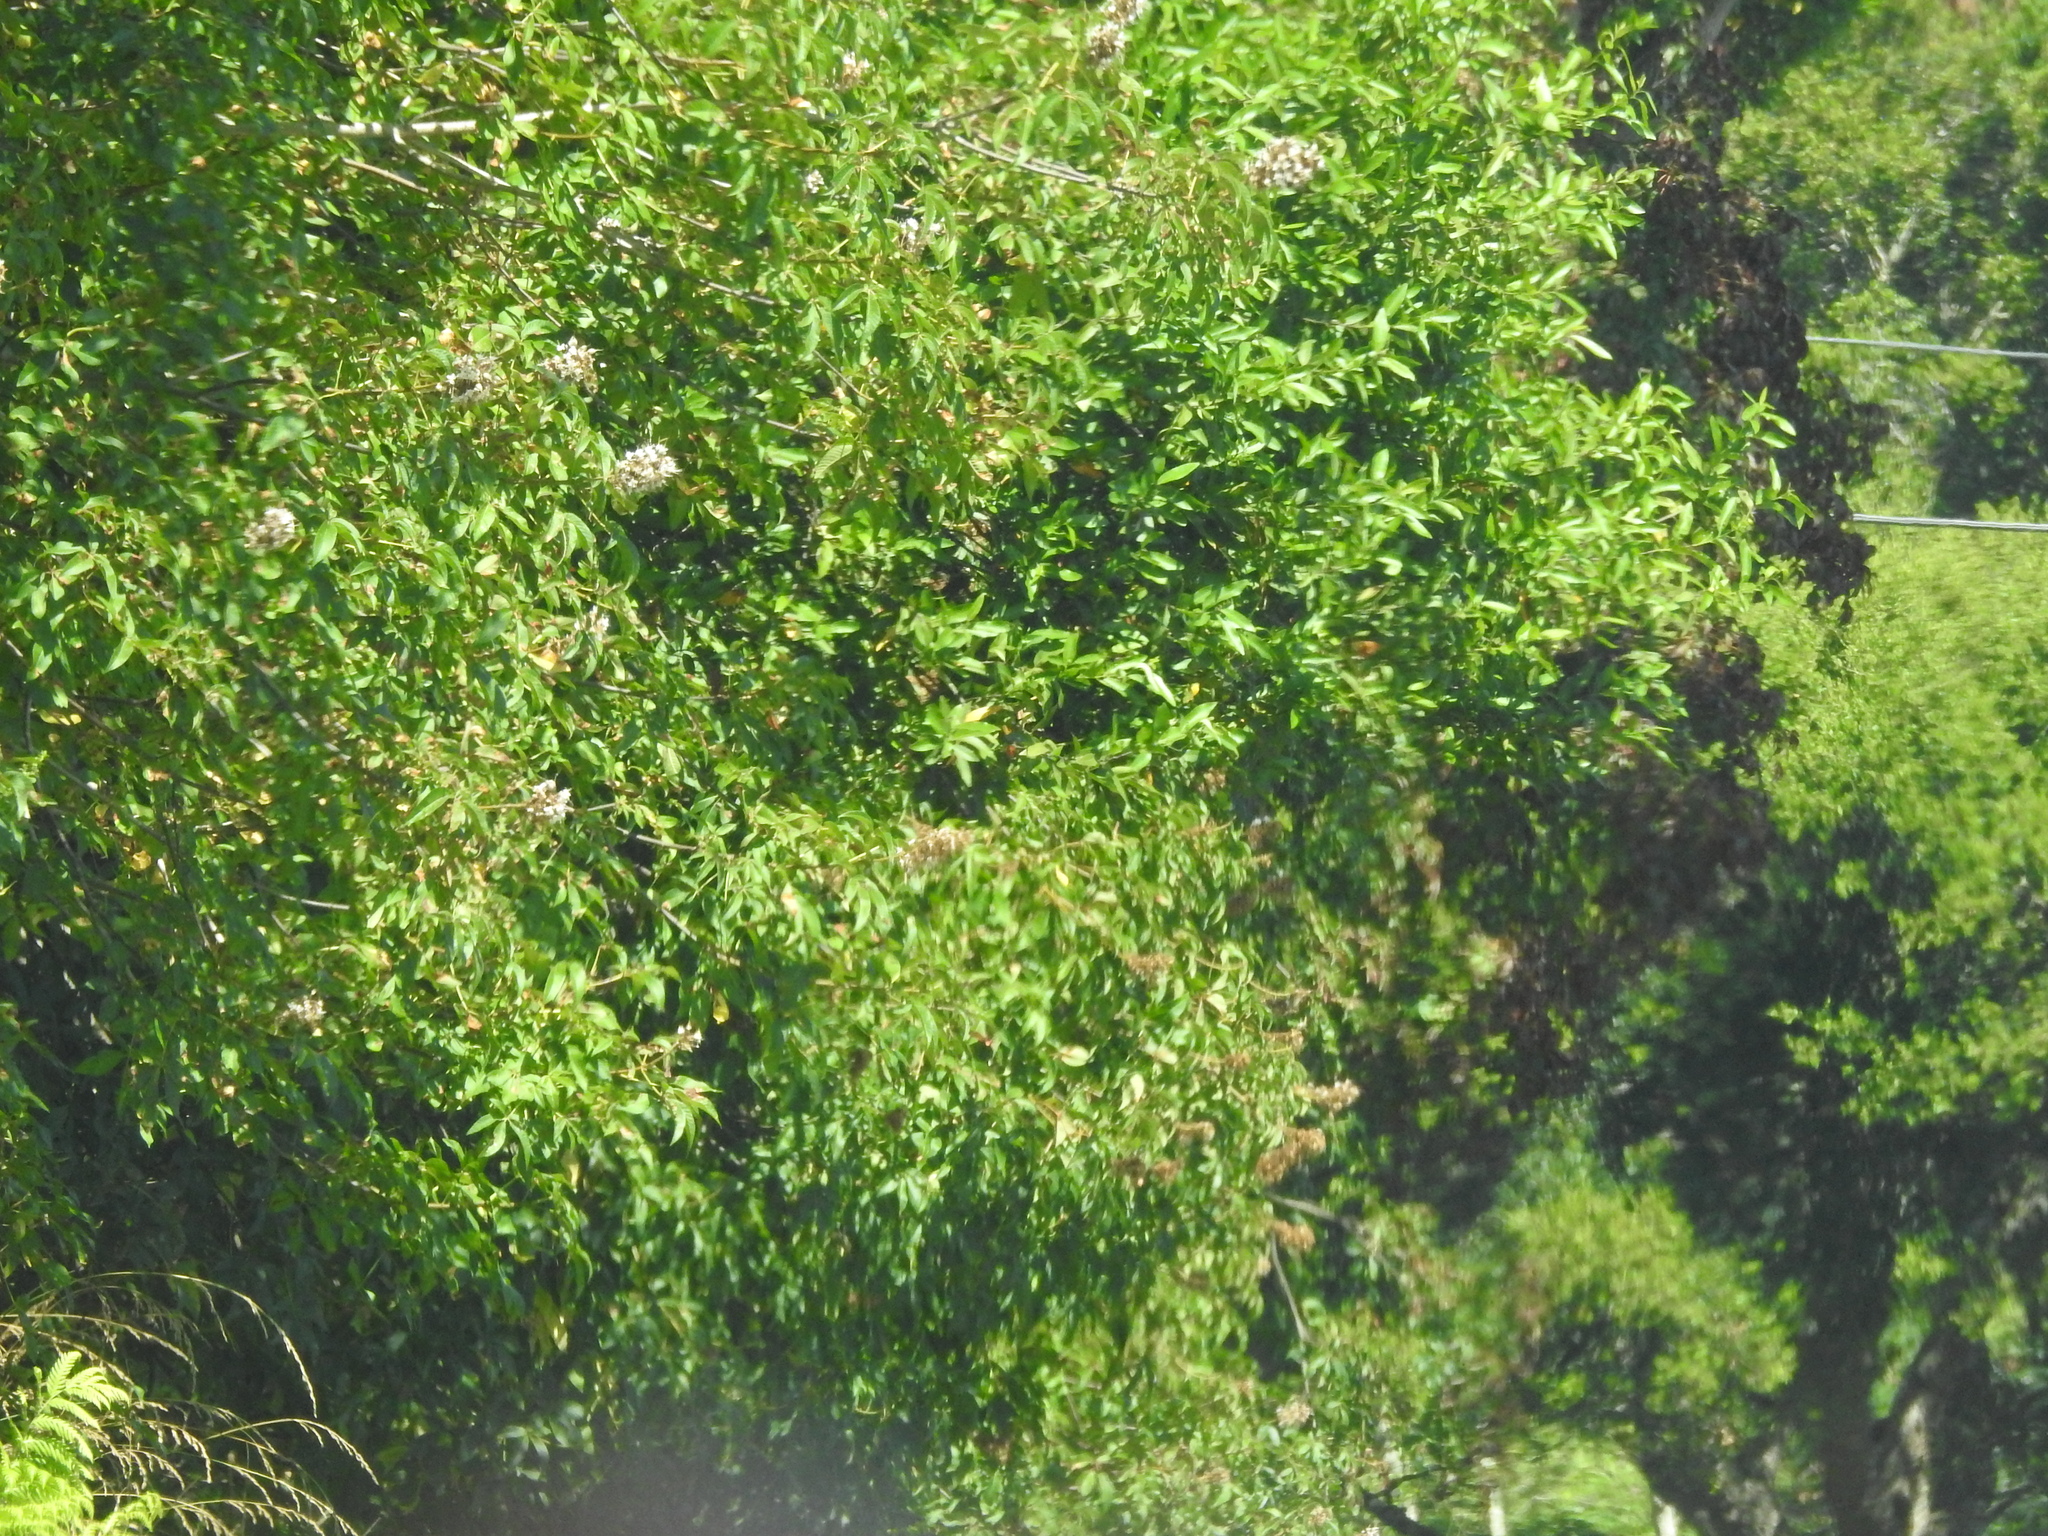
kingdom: Plantae
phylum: Tracheophyta
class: Magnoliopsida
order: Sapindales
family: Sapindaceae
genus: Aesculus
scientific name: Aesculus californica
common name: California buckeye
